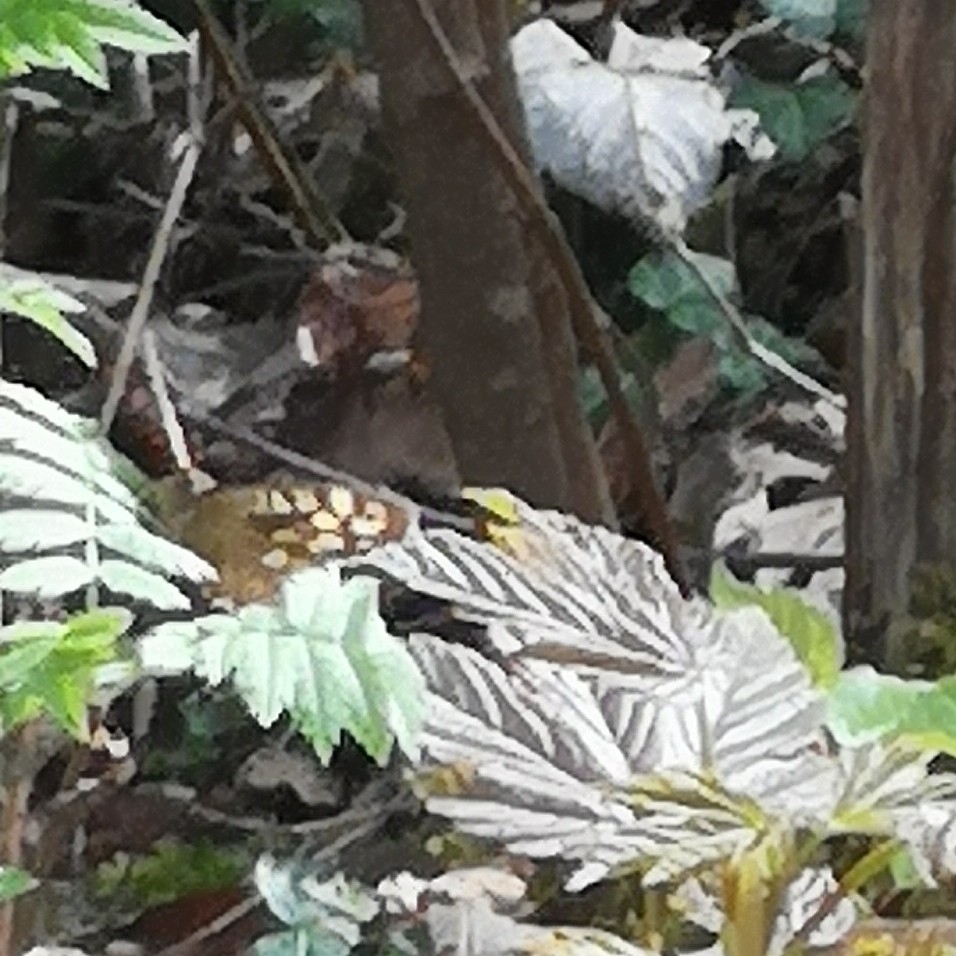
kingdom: Animalia
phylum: Arthropoda
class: Insecta
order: Lepidoptera
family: Nymphalidae
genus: Pararge
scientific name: Pararge aegeria
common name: Speckled wood
